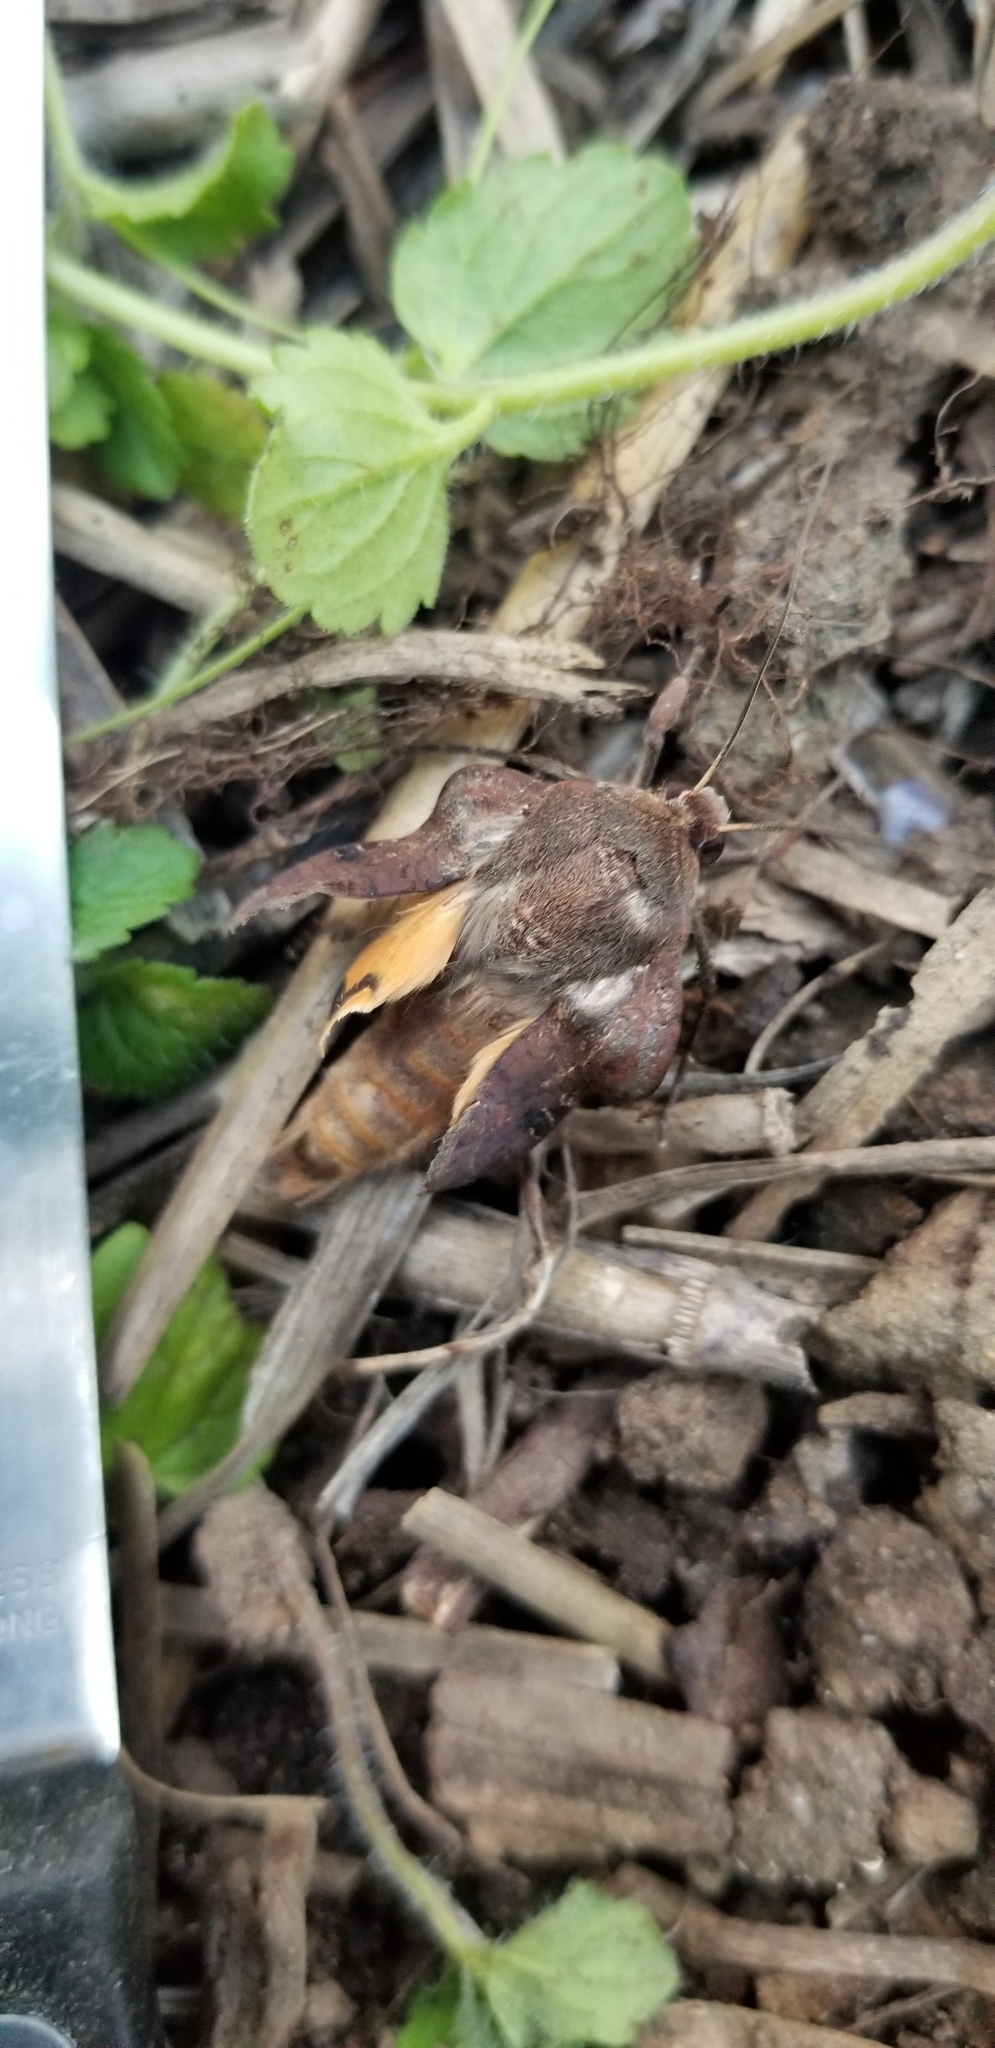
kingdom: Animalia
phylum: Arthropoda
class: Insecta
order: Lepidoptera
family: Noctuidae
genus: Noctua
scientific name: Noctua pronuba
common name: Large yellow underwing
